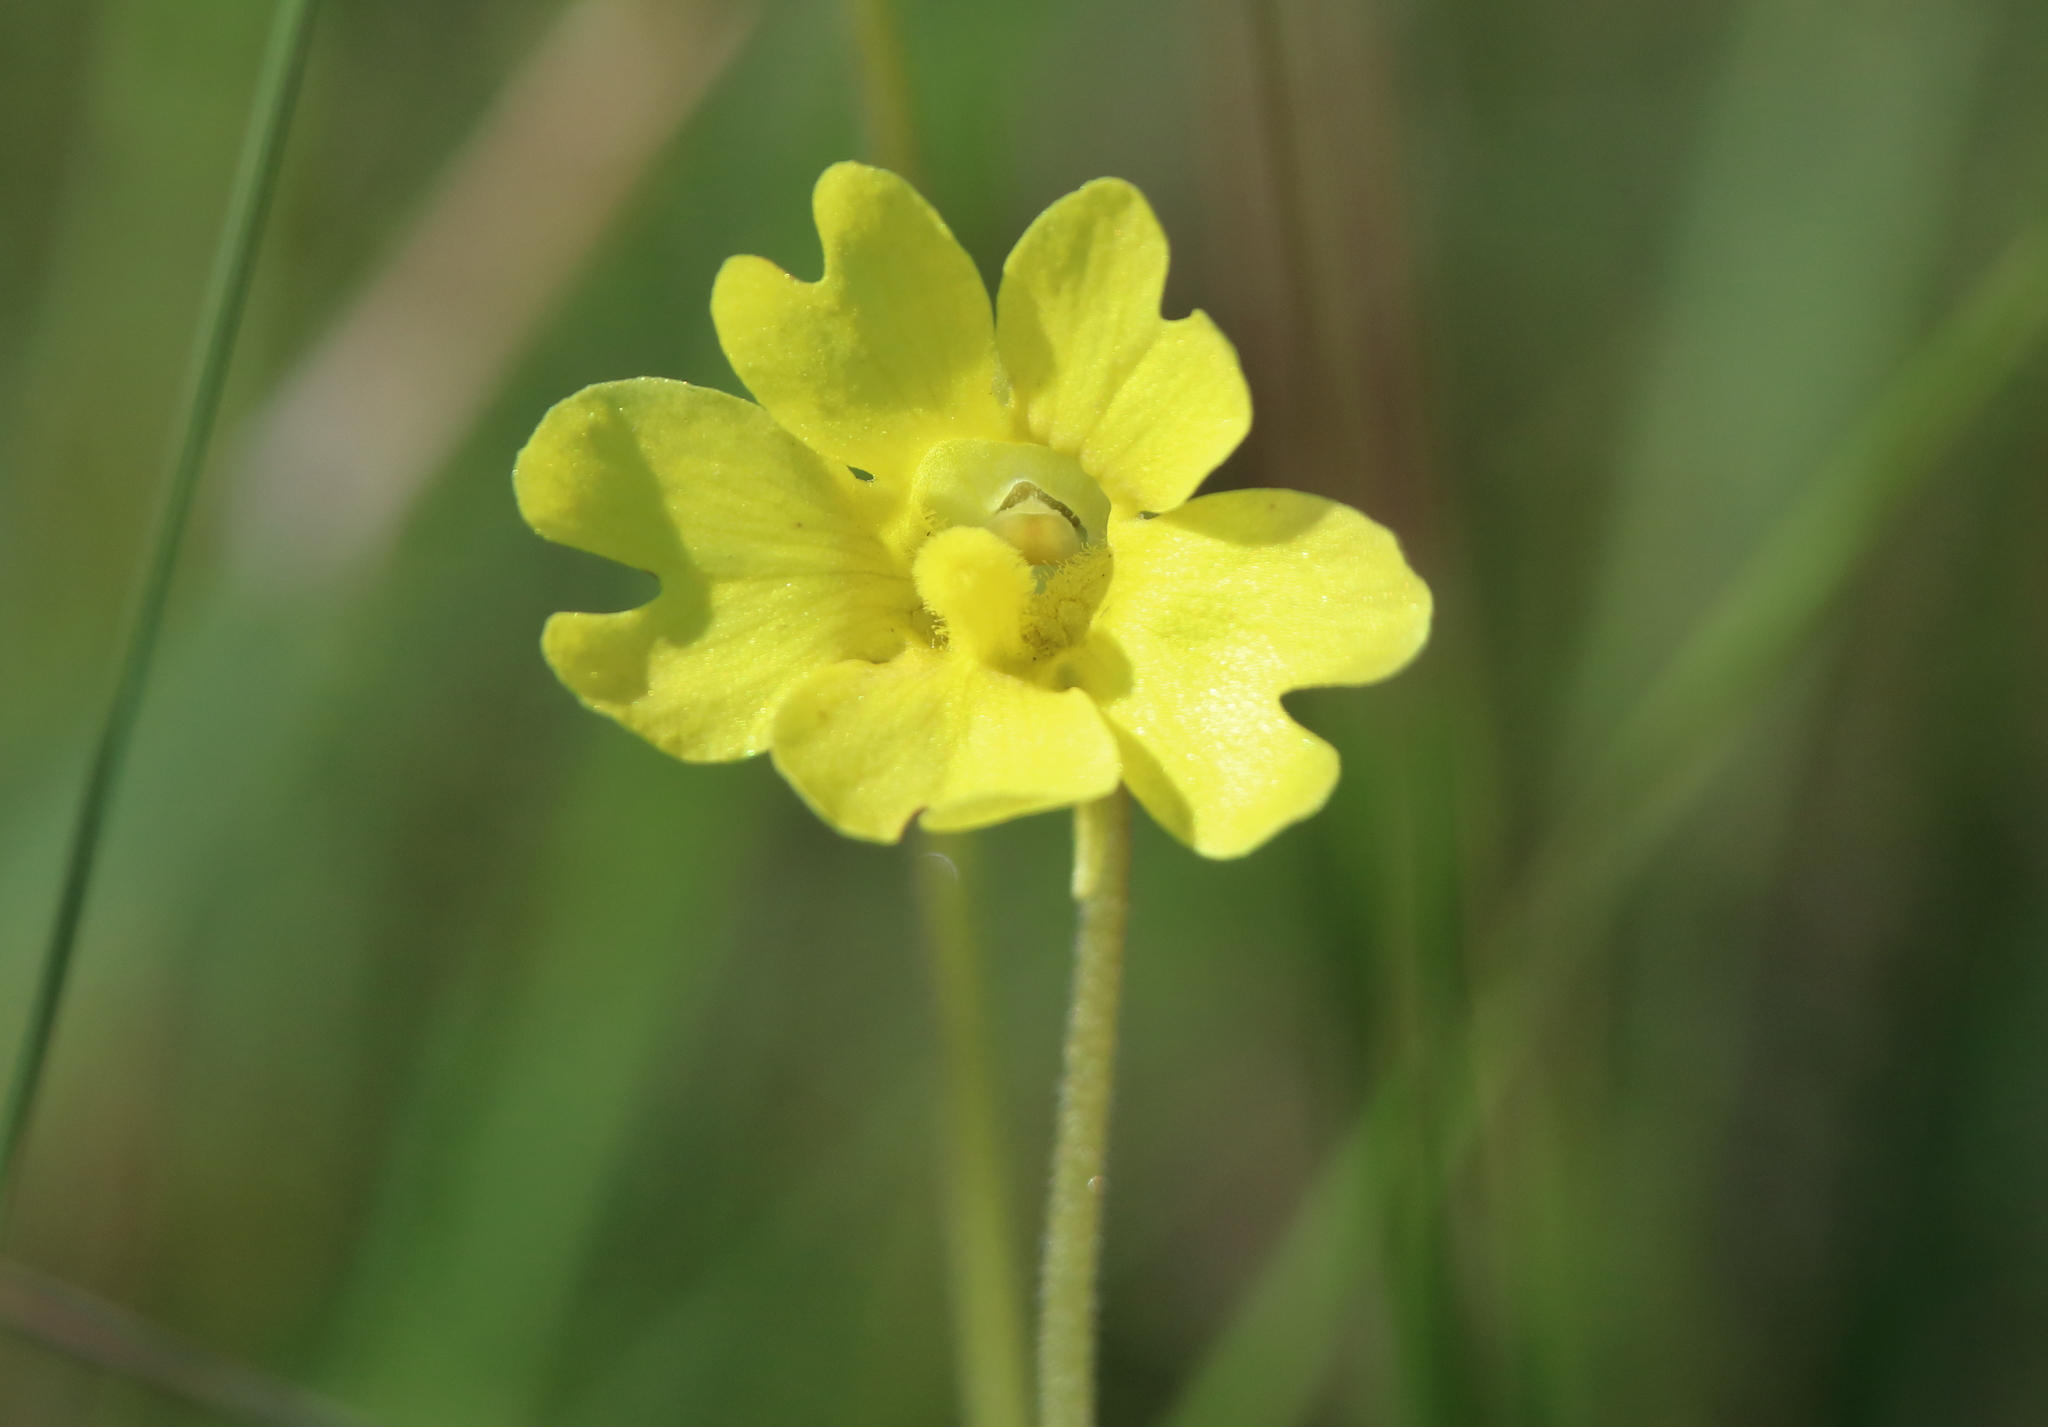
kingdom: Plantae
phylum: Tracheophyta
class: Magnoliopsida
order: Lamiales
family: Lentibulariaceae
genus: Pinguicula
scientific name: Pinguicula lutea
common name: Yellow butterwort
